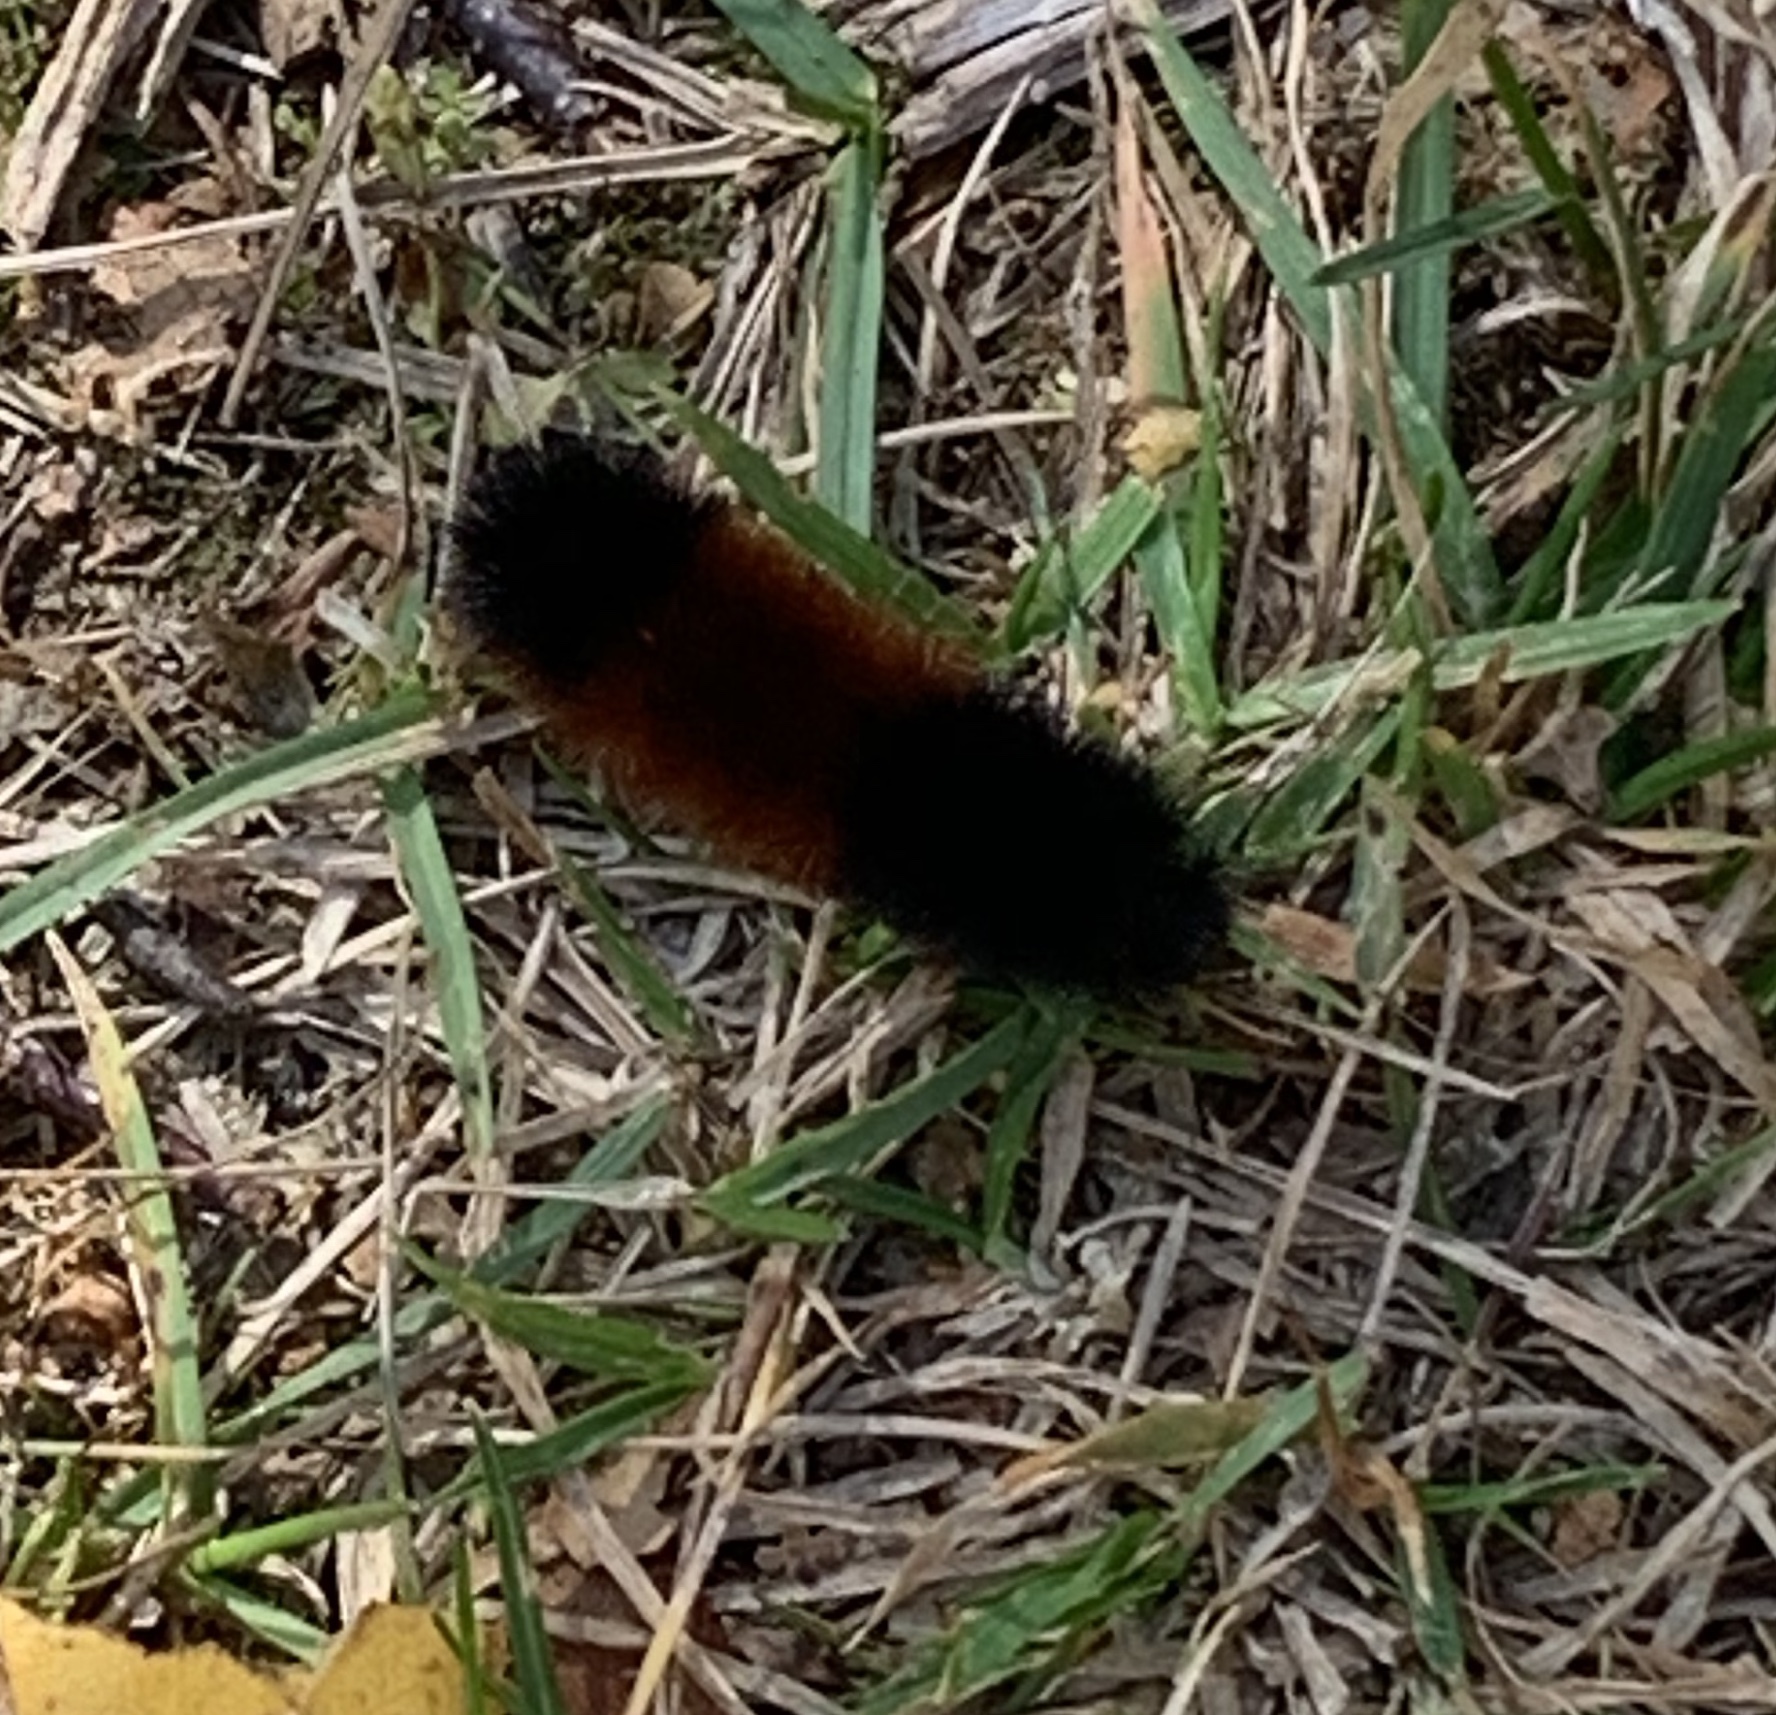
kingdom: Animalia
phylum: Arthropoda
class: Insecta
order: Lepidoptera
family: Erebidae
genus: Pyrrharctia
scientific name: Pyrrharctia isabella
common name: Isabella tiger moth
